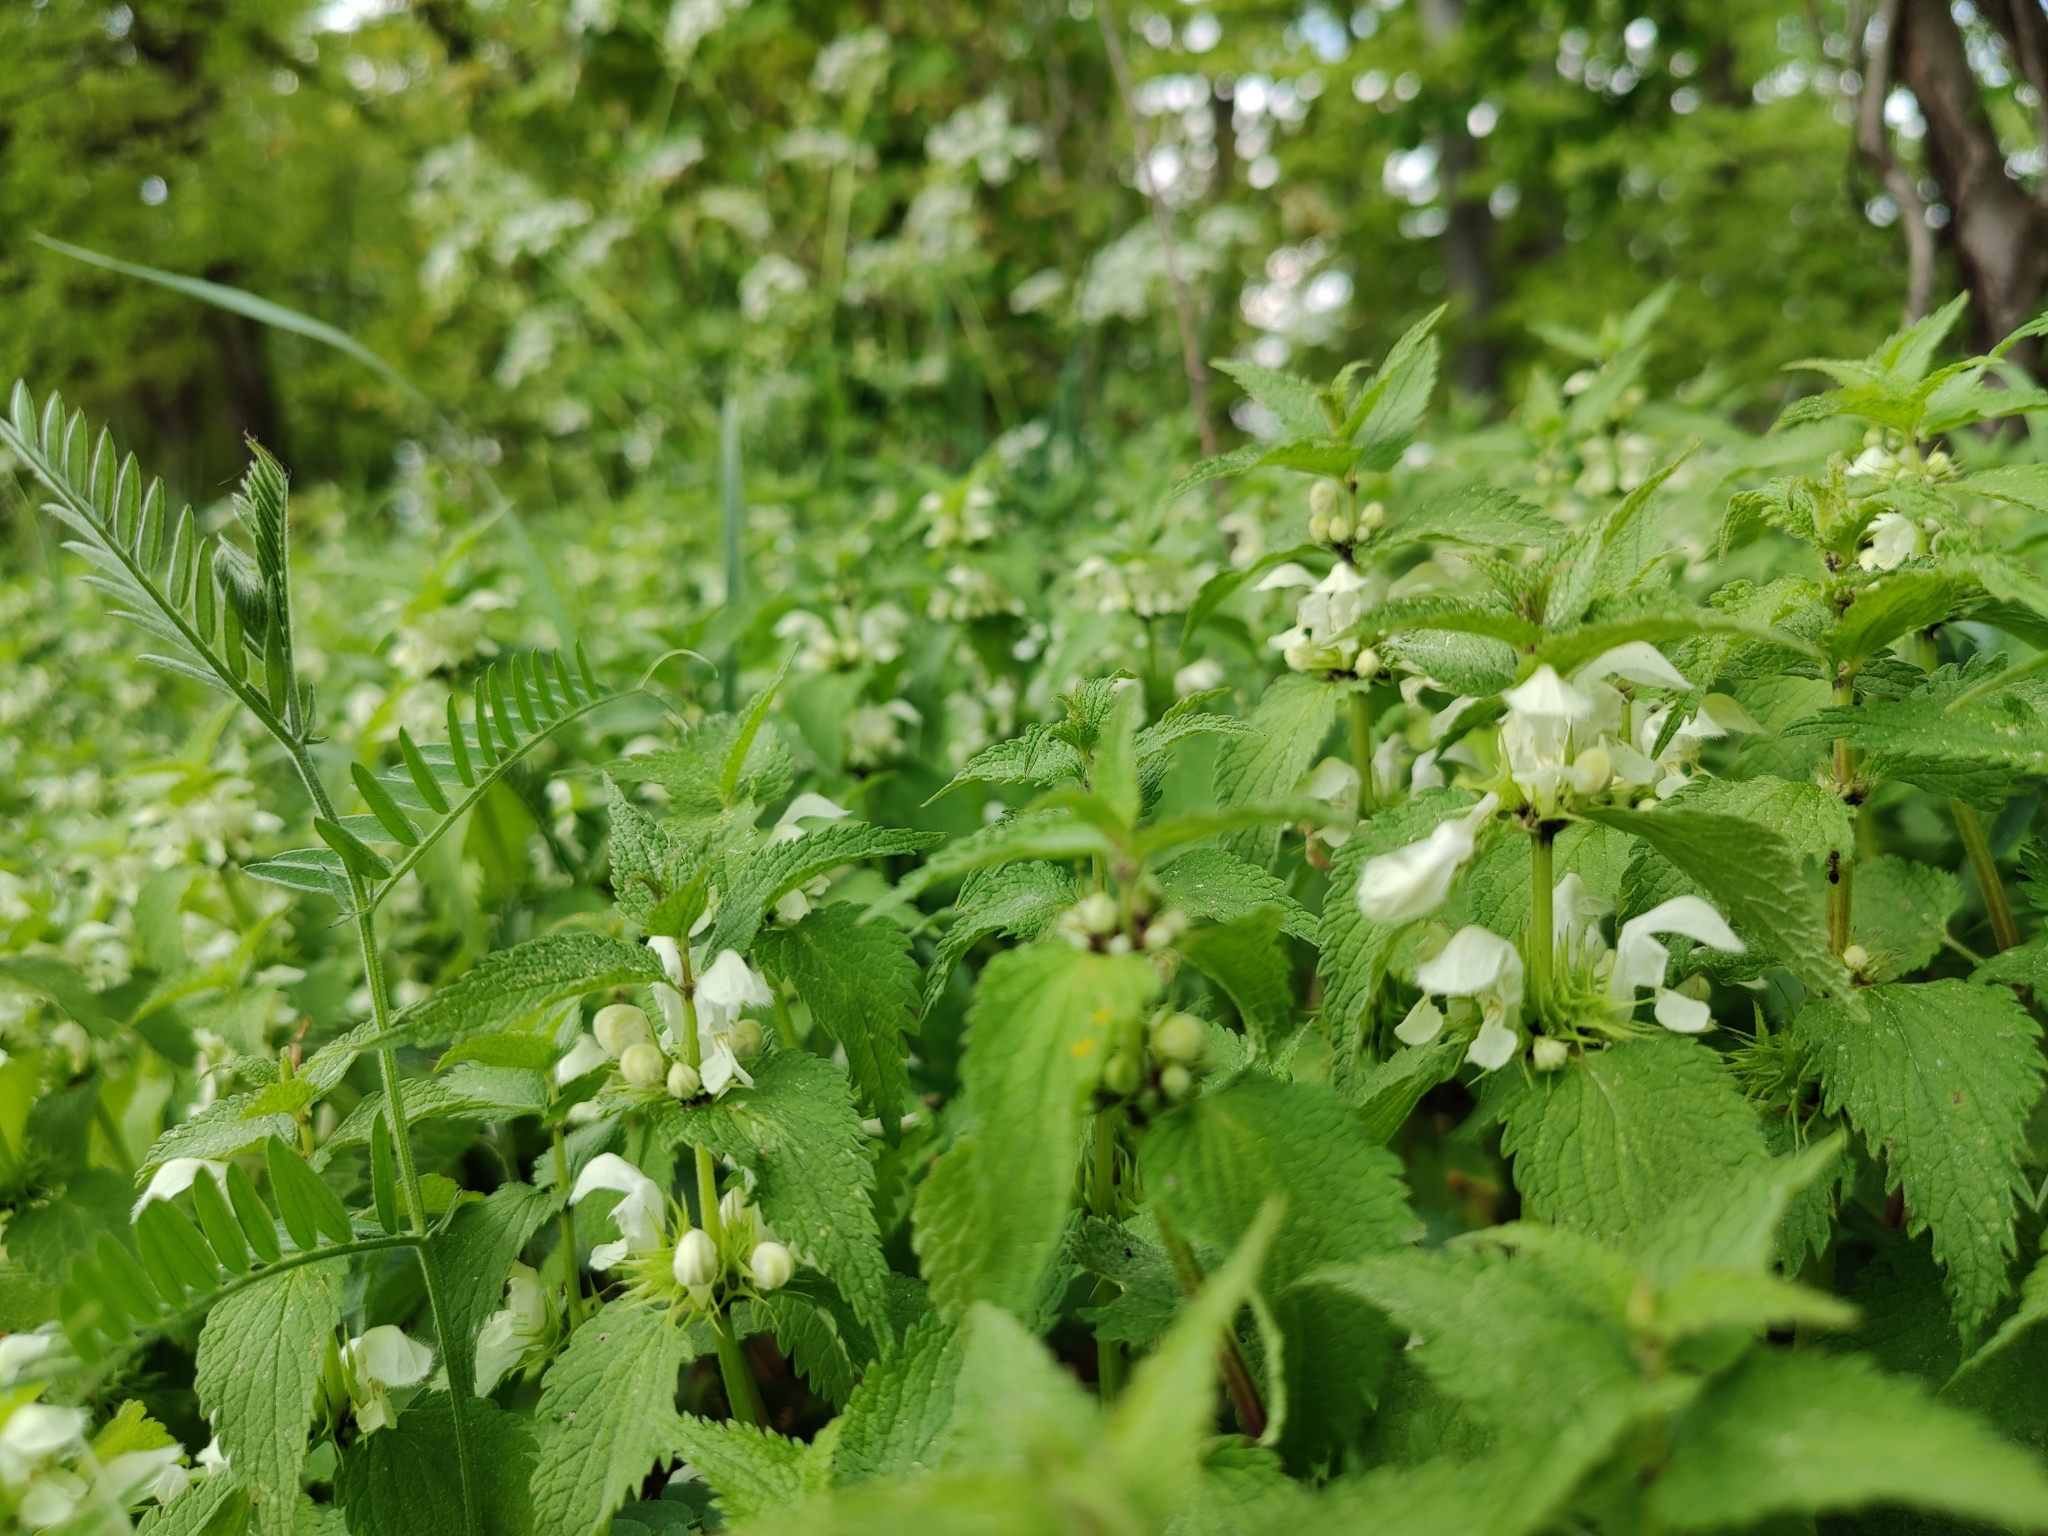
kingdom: Plantae
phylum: Tracheophyta
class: Magnoliopsida
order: Lamiales
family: Lamiaceae
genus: Lamium
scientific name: Lamium album
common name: White dead-nettle
